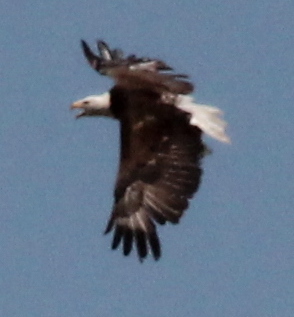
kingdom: Animalia
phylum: Chordata
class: Aves
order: Accipitriformes
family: Accipitridae
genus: Haliaeetus
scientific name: Haliaeetus leucocephalus
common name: Bald eagle
